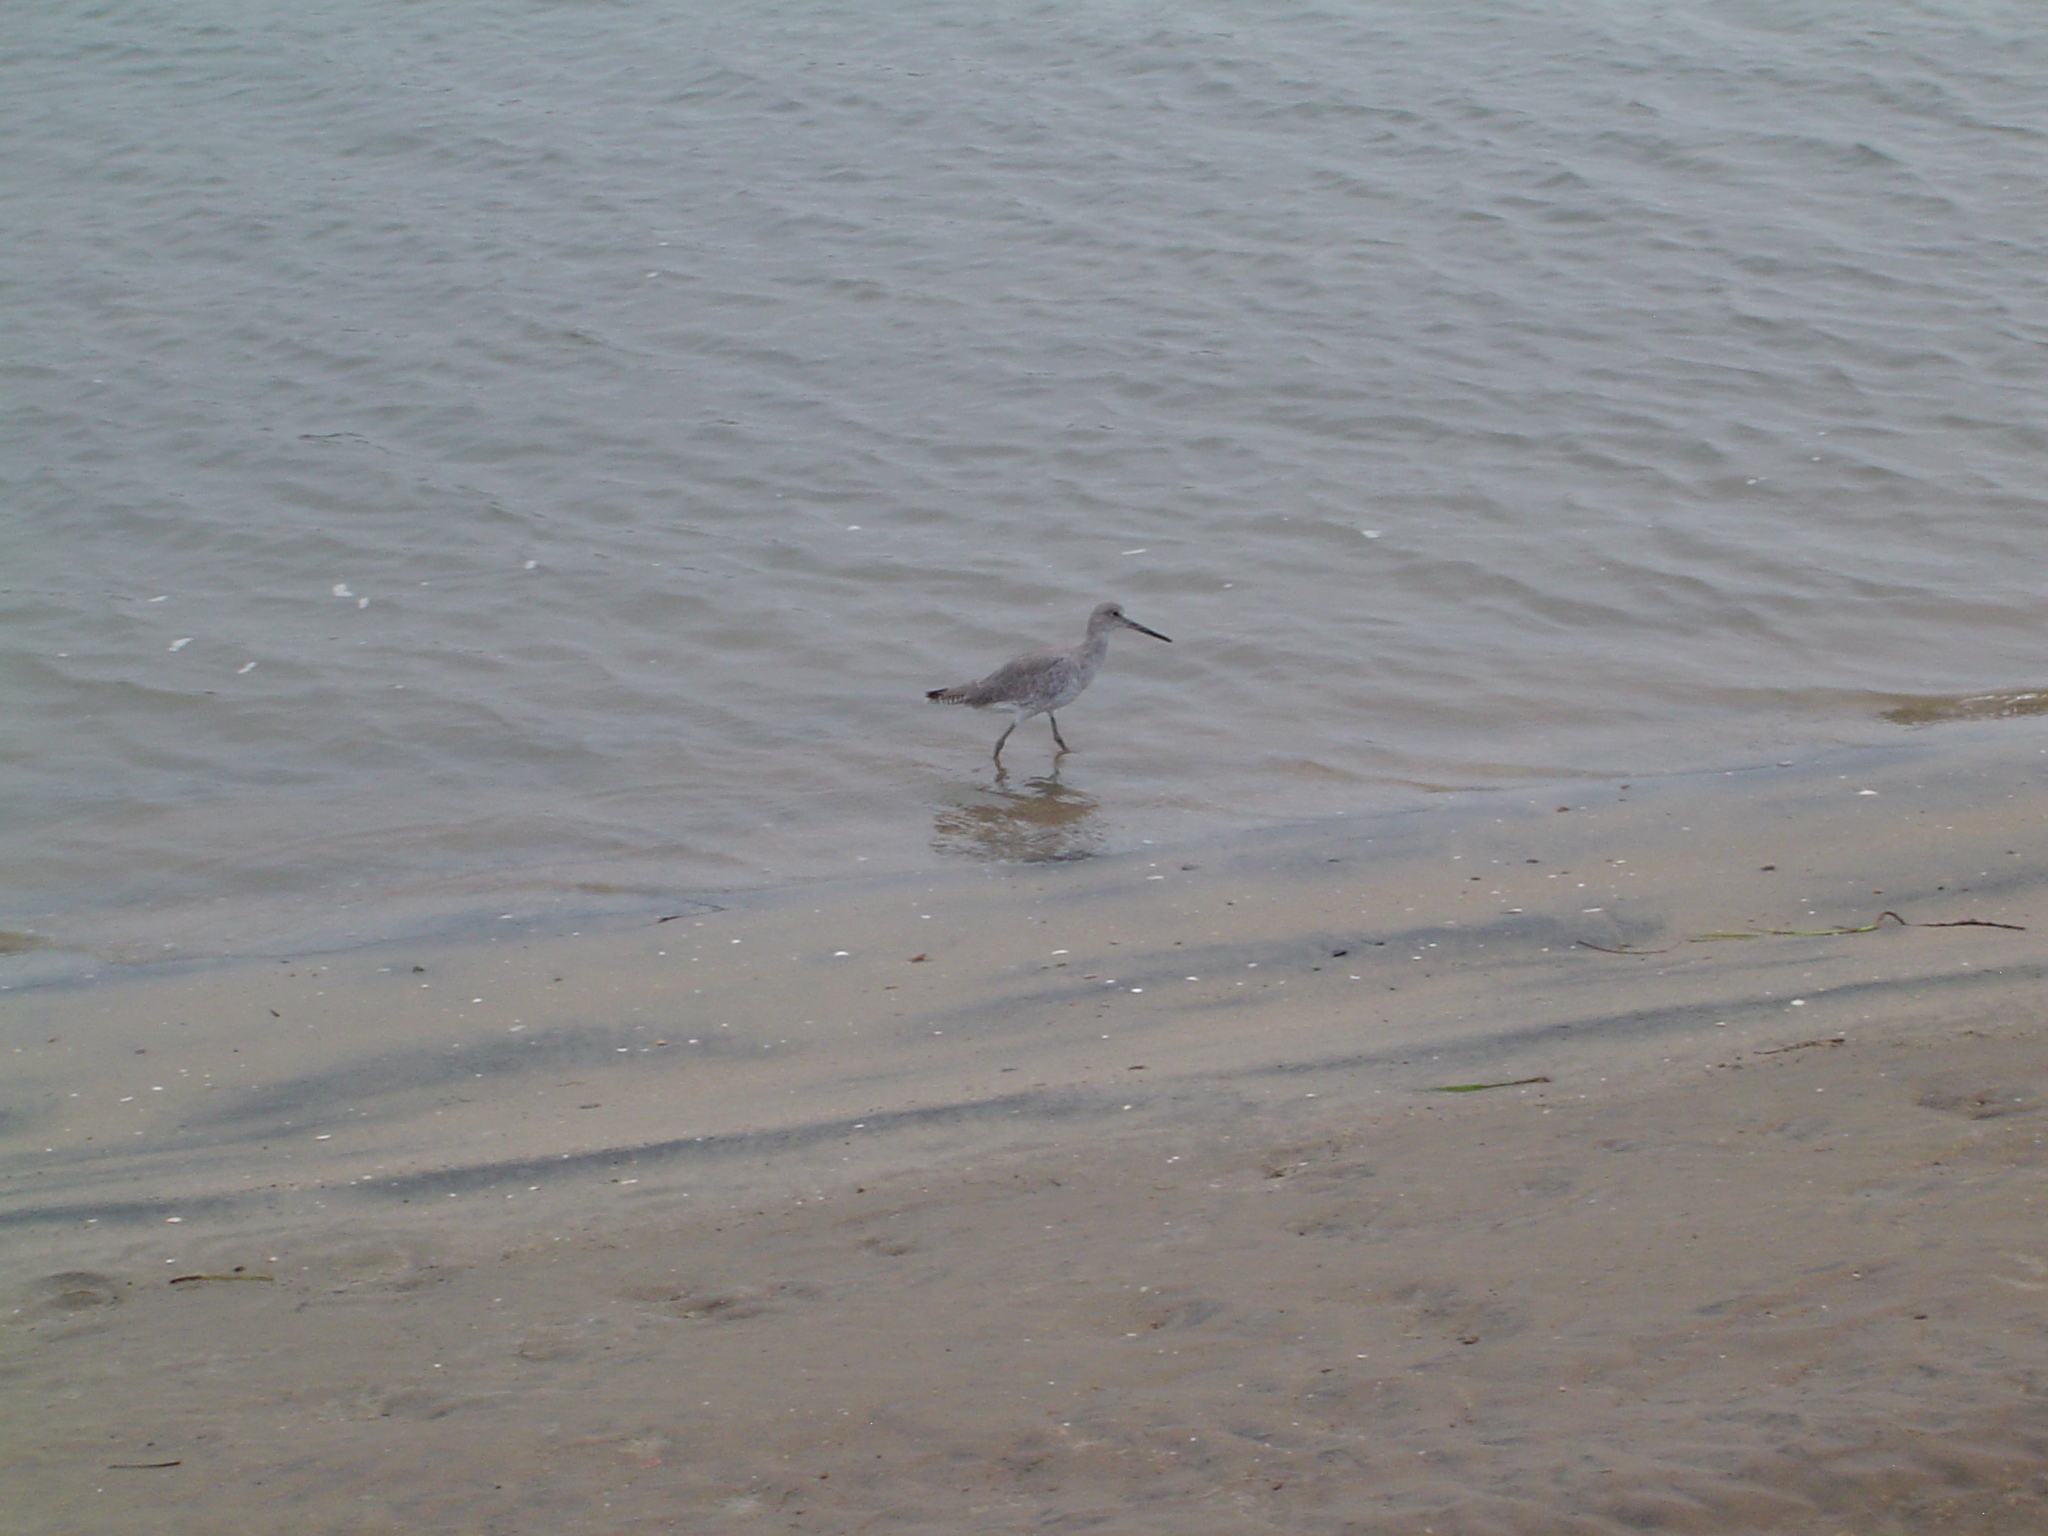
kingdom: Animalia
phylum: Chordata
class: Aves
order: Charadriiformes
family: Scolopacidae
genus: Tringa
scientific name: Tringa semipalmata
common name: Willet
